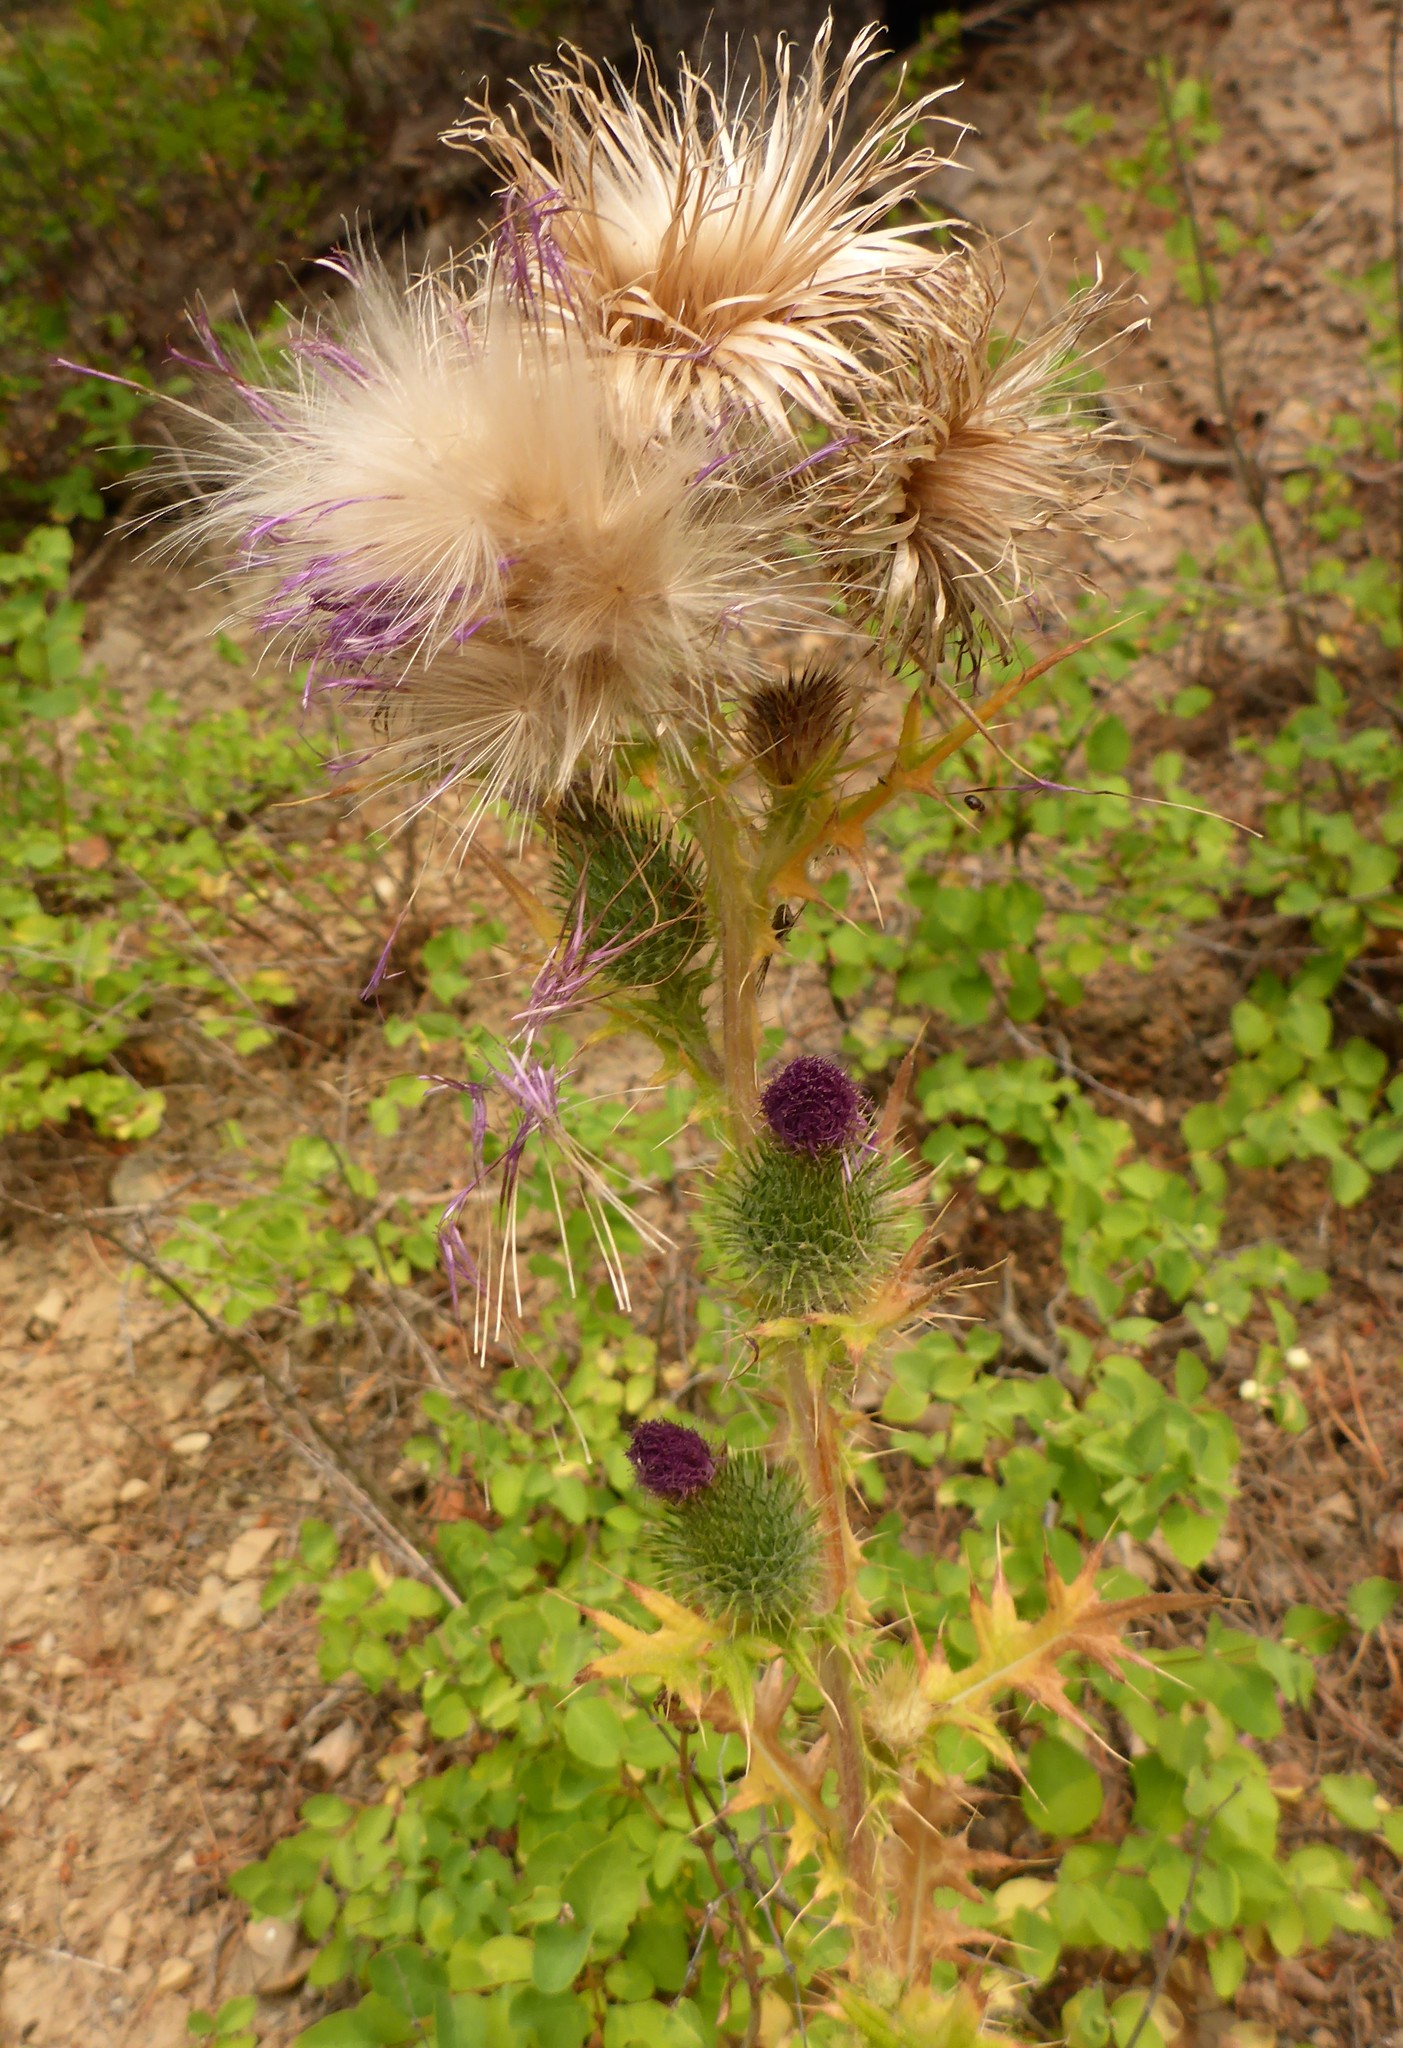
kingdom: Plantae
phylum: Tracheophyta
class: Magnoliopsida
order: Asterales
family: Asteraceae
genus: Cirsium
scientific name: Cirsium vulgare
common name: Bull thistle
